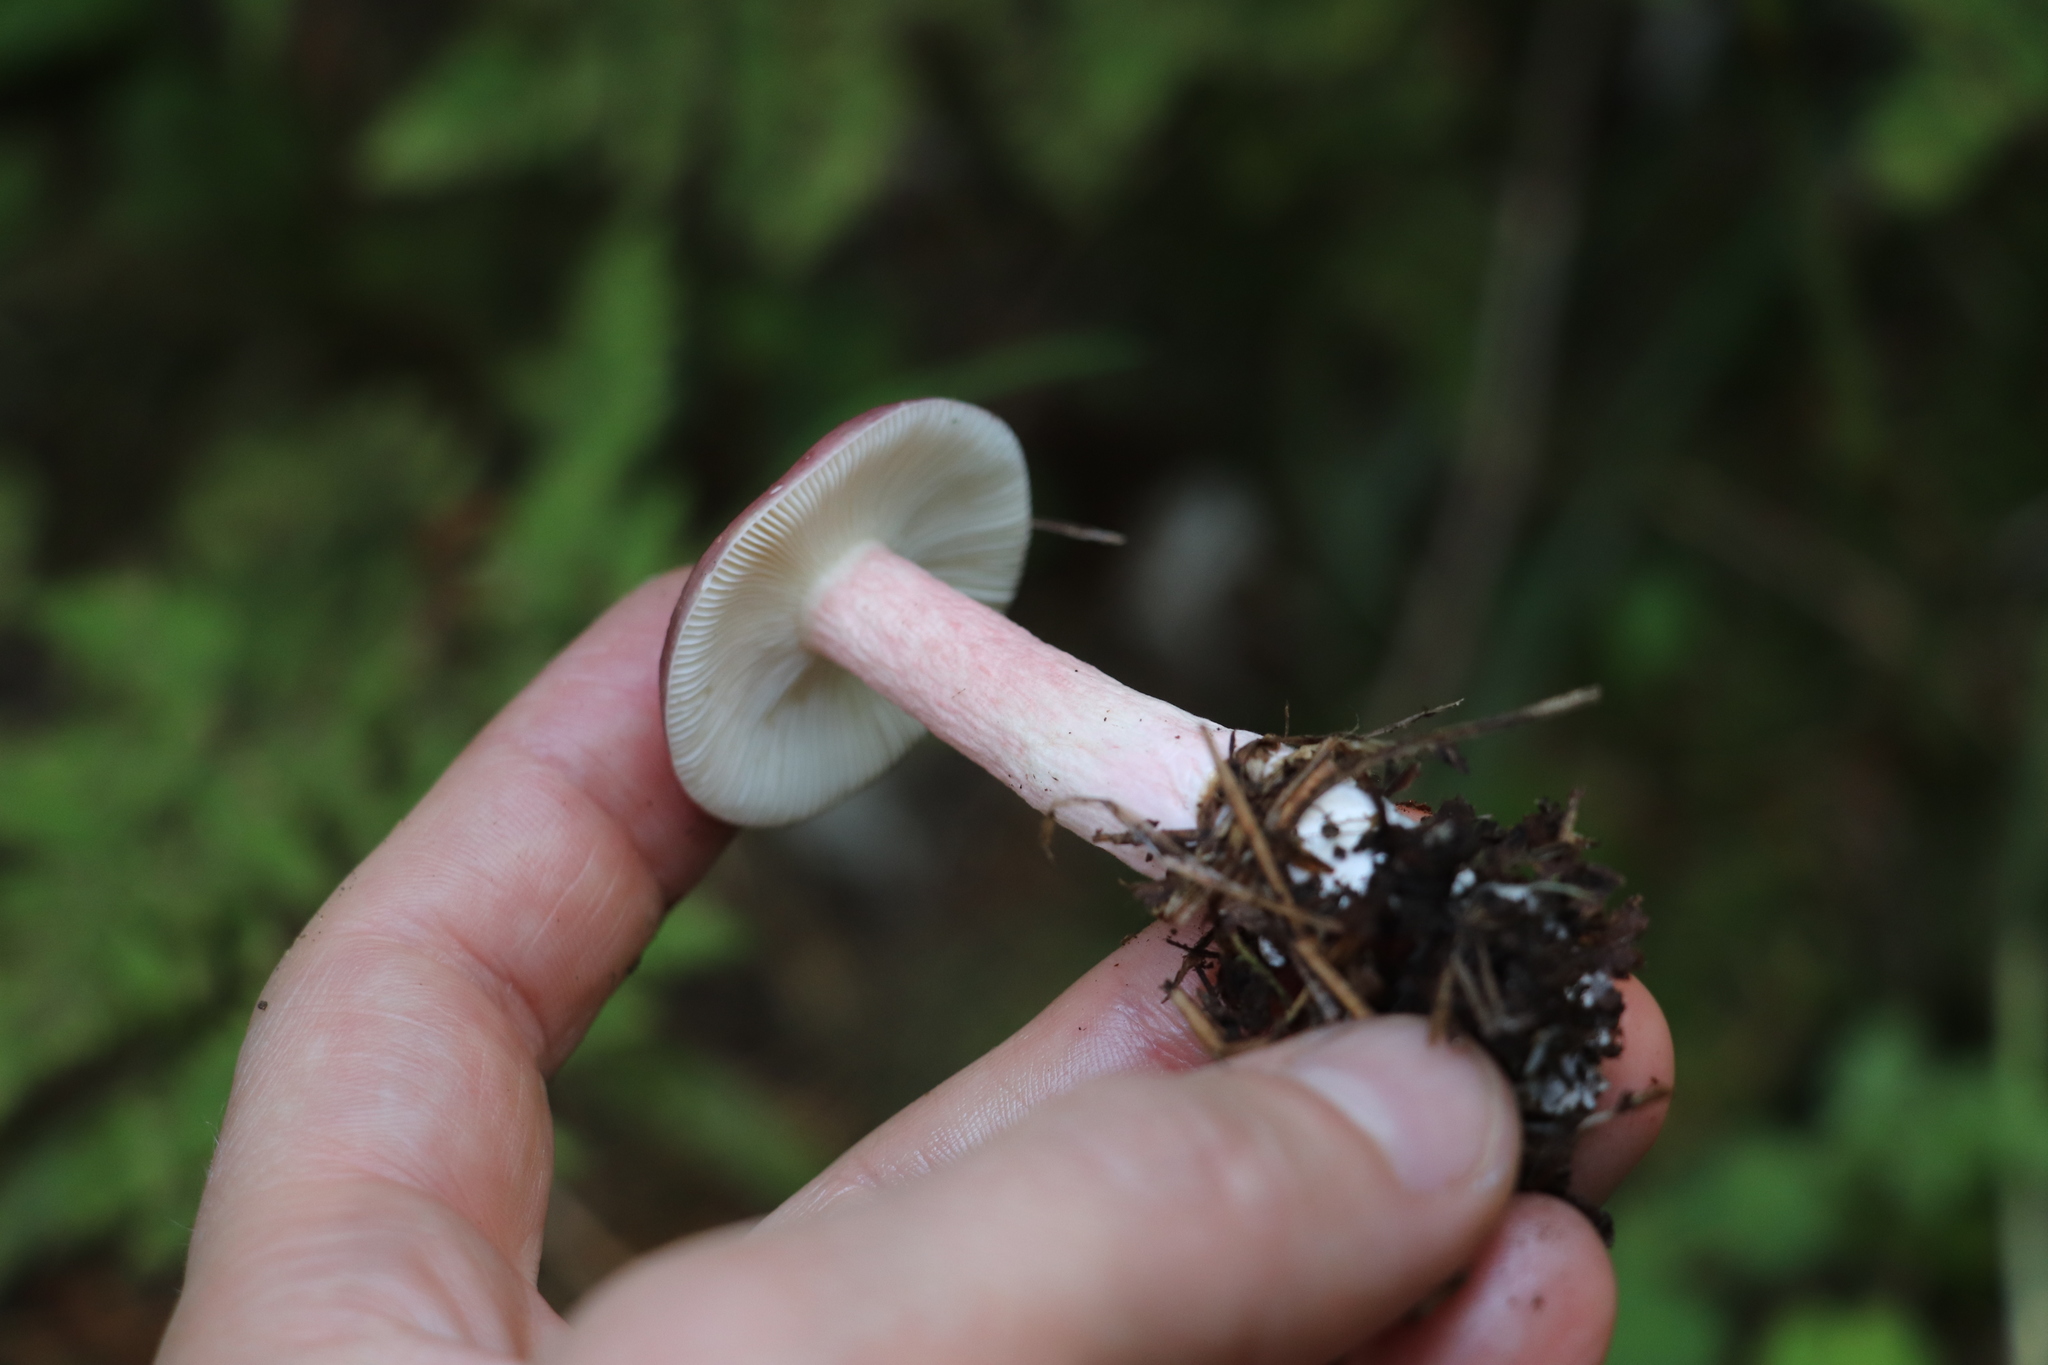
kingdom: Fungi
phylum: Basidiomycota
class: Agaricomycetes
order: Russulales
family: Russulaceae
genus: Russula
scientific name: Russula queletii
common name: Fruity brittlegill
